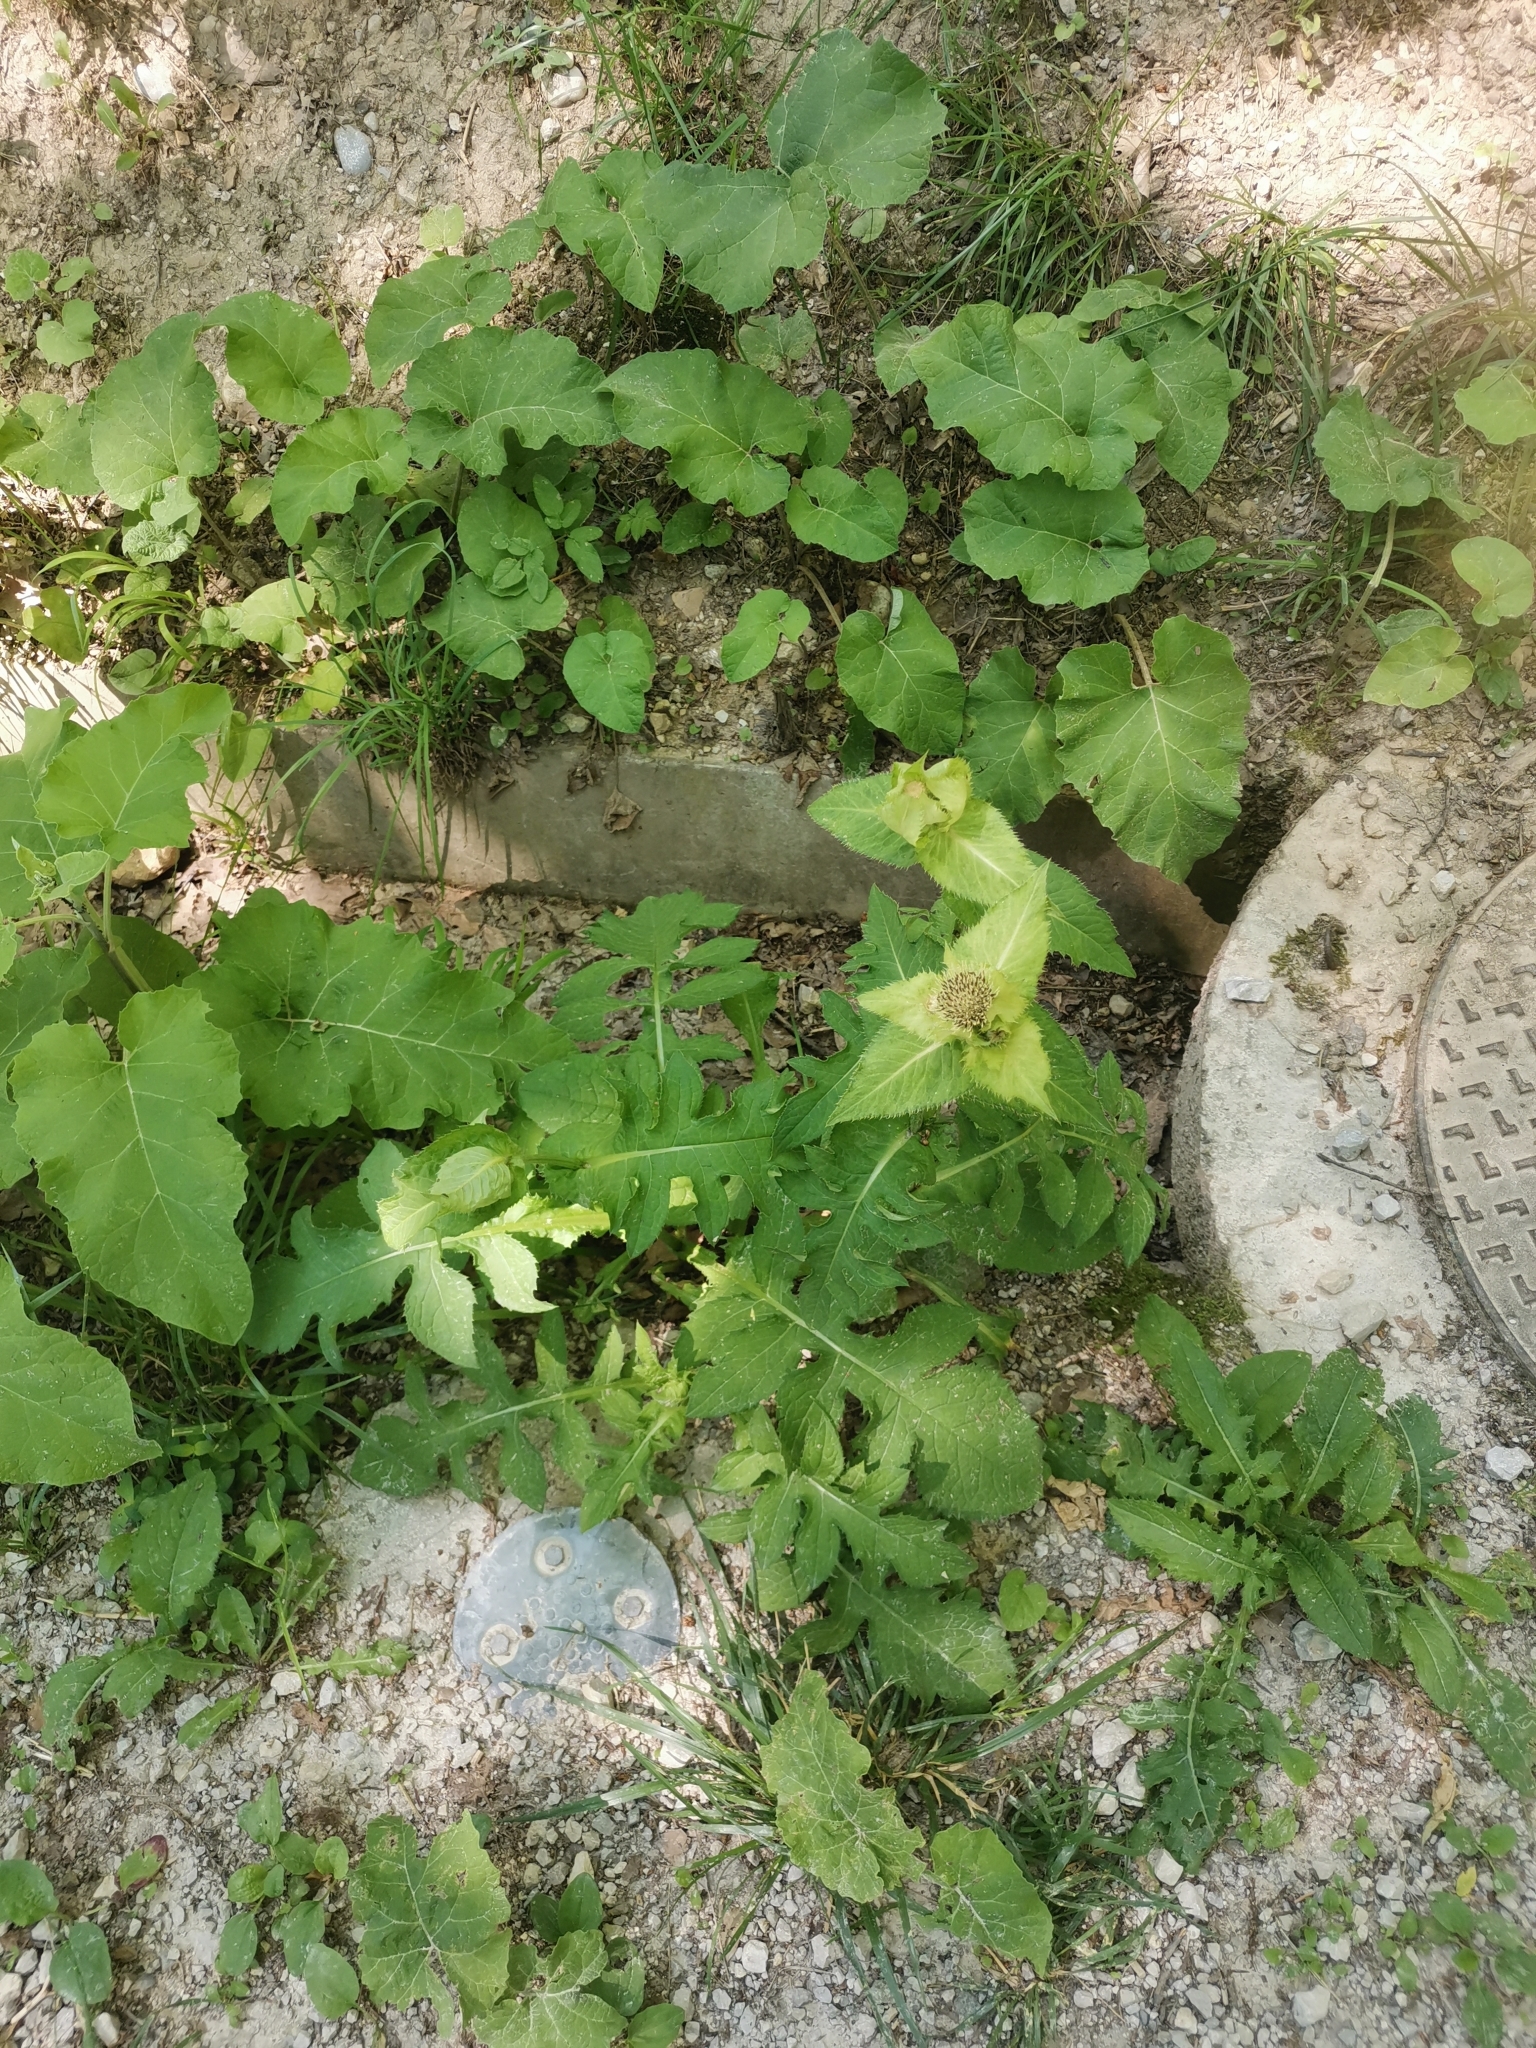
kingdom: Plantae
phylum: Tracheophyta
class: Magnoliopsida
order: Asterales
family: Asteraceae
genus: Cirsium
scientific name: Cirsium oleraceum
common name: Cabbage thistle
